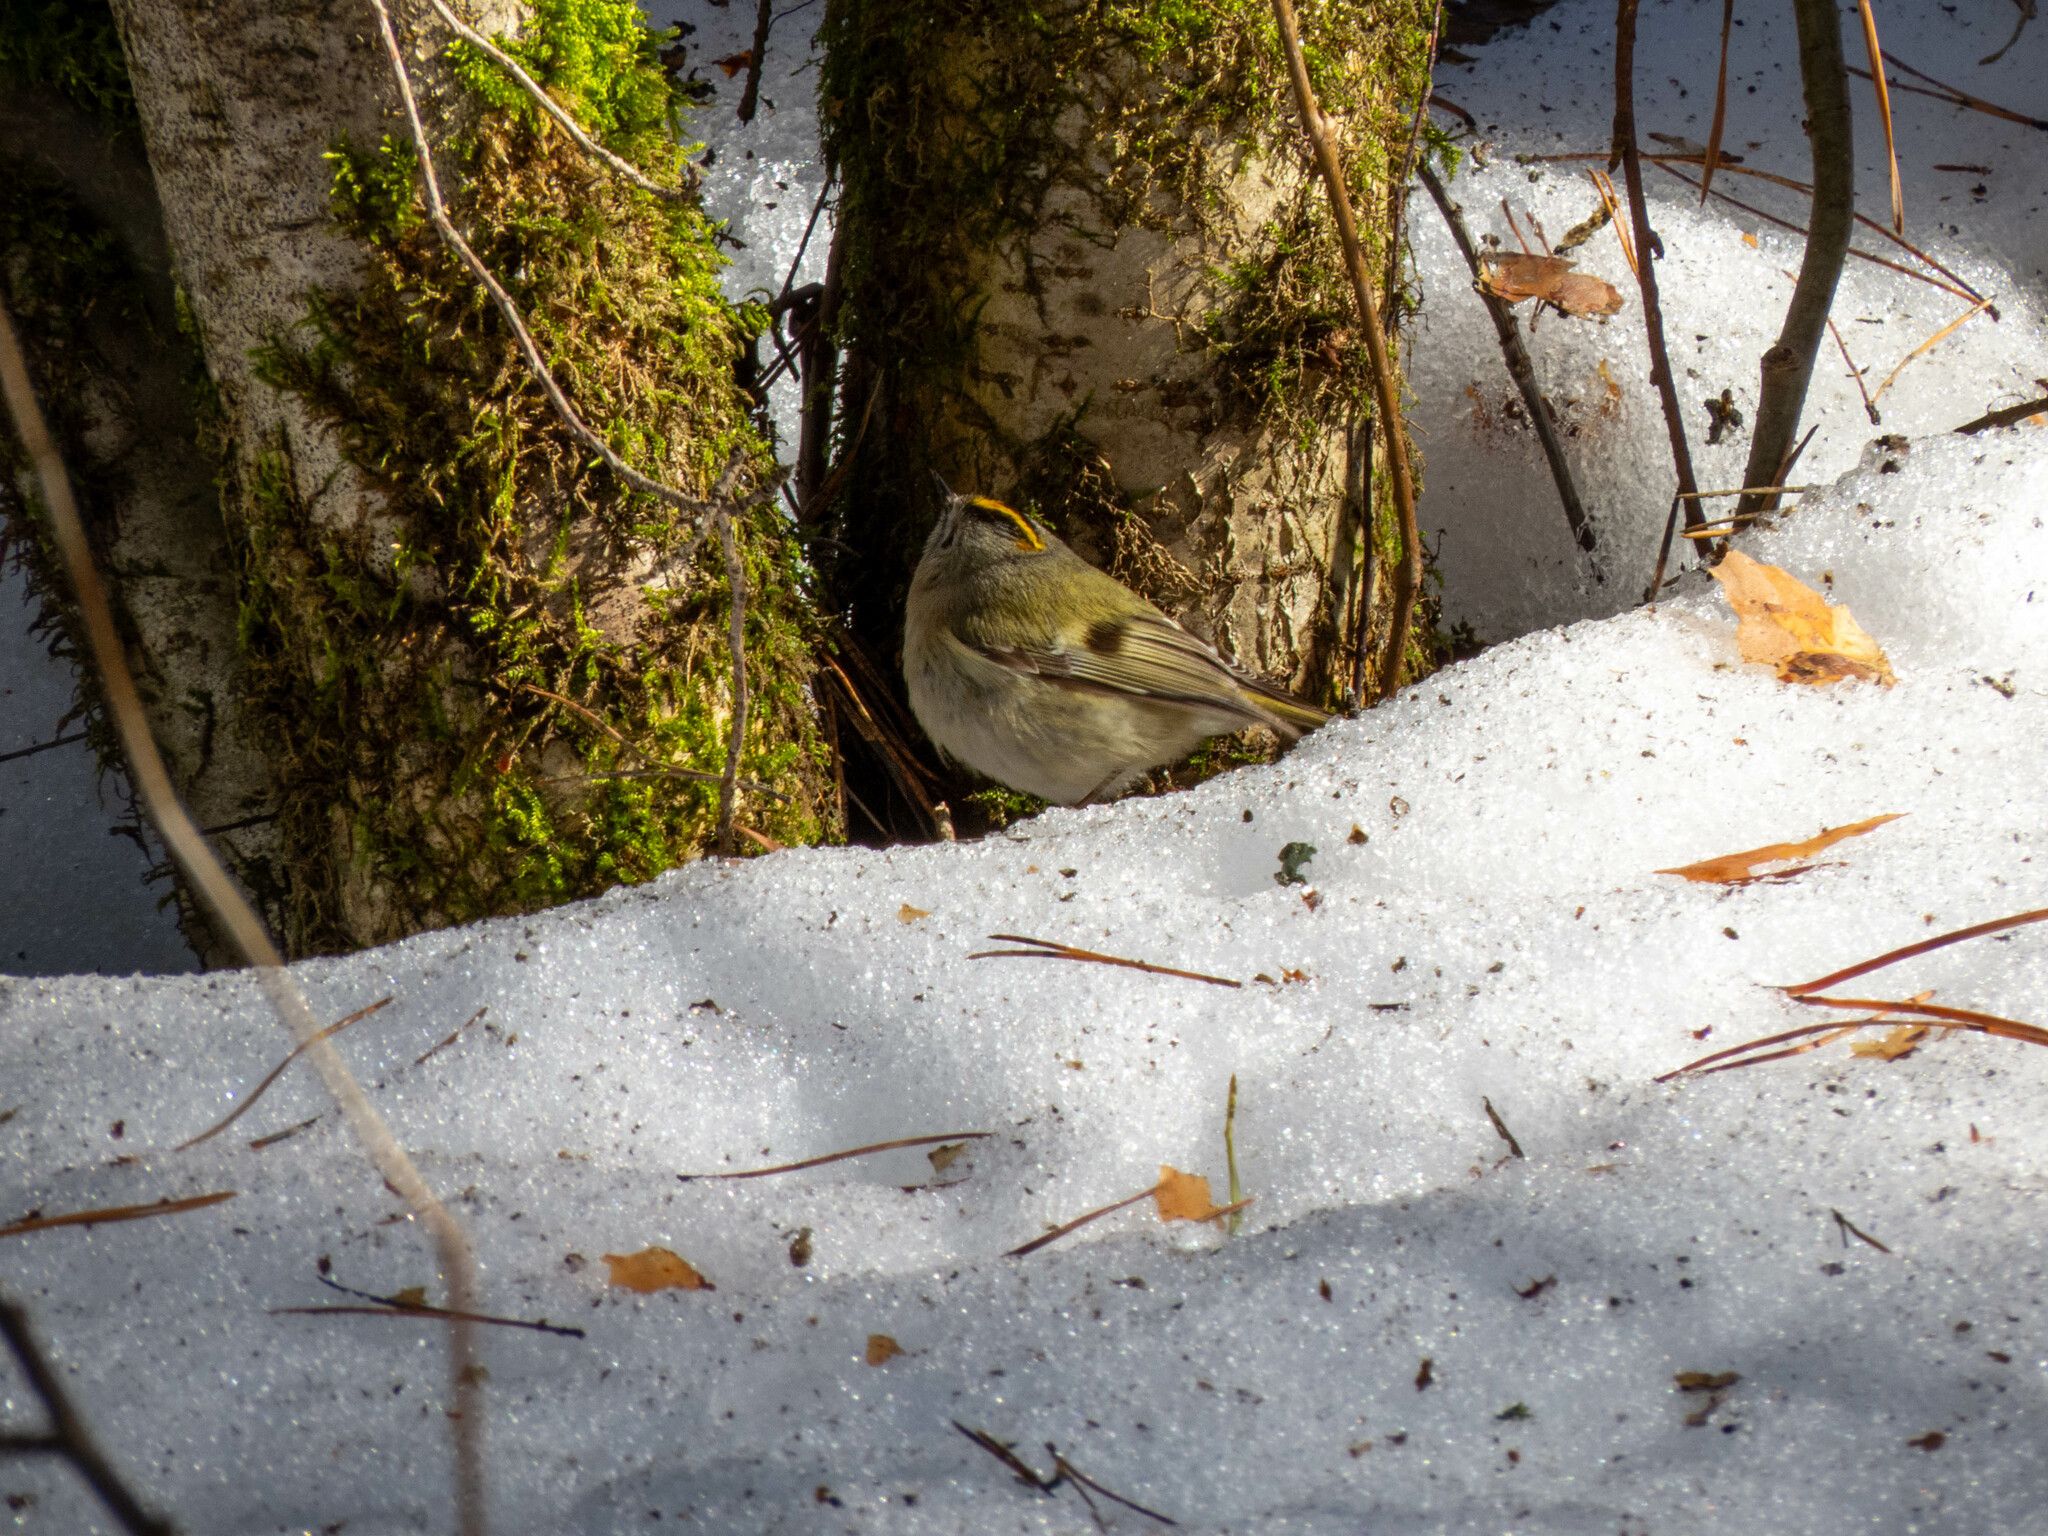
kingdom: Animalia
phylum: Chordata
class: Aves
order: Passeriformes
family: Regulidae
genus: Regulus
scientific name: Regulus regulus
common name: Goldcrest
